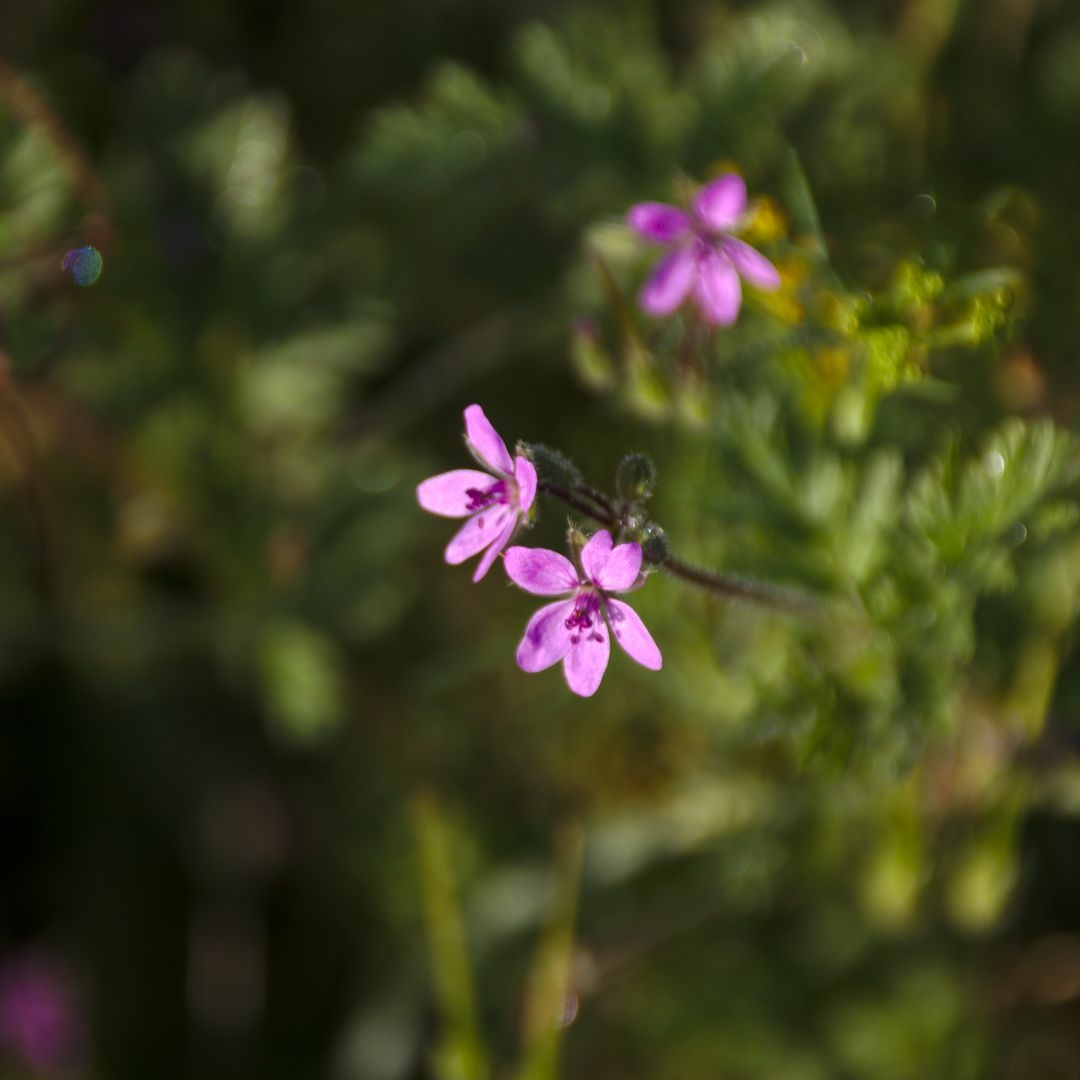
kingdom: Plantae
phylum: Tracheophyta
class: Magnoliopsida
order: Geraniales
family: Geraniaceae
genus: Erodium
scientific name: Erodium cicutarium
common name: Common stork's-bill
